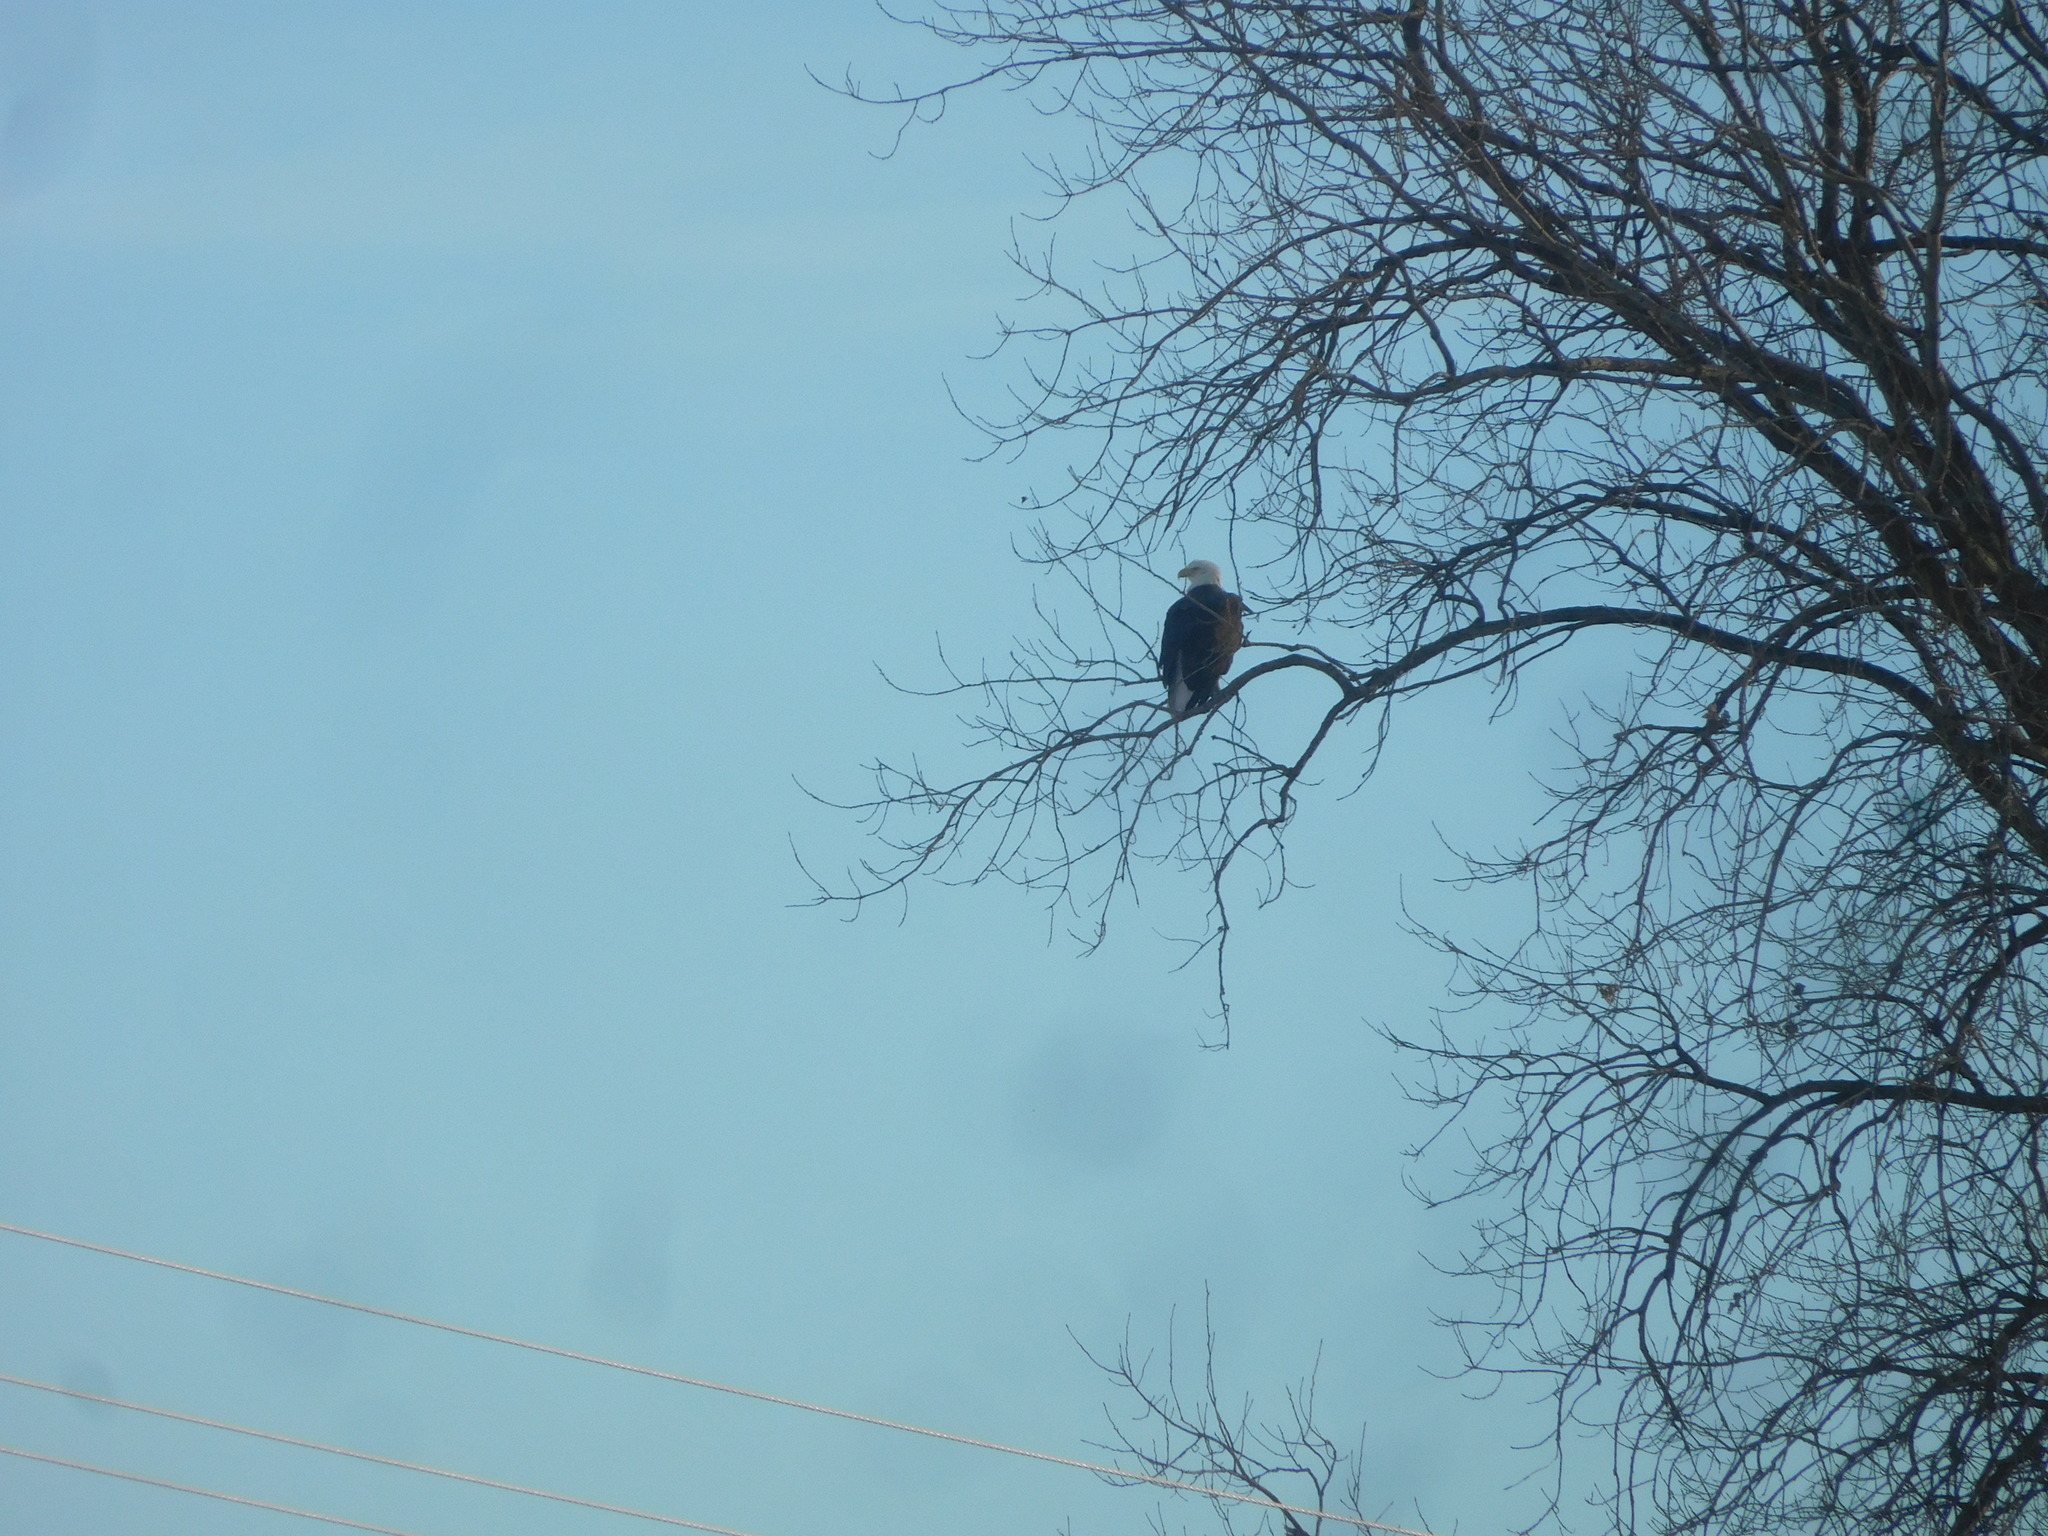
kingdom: Animalia
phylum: Chordata
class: Aves
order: Accipitriformes
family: Accipitridae
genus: Haliaeetus
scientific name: Haliaeetus leucocephalus
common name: Bald eagle
